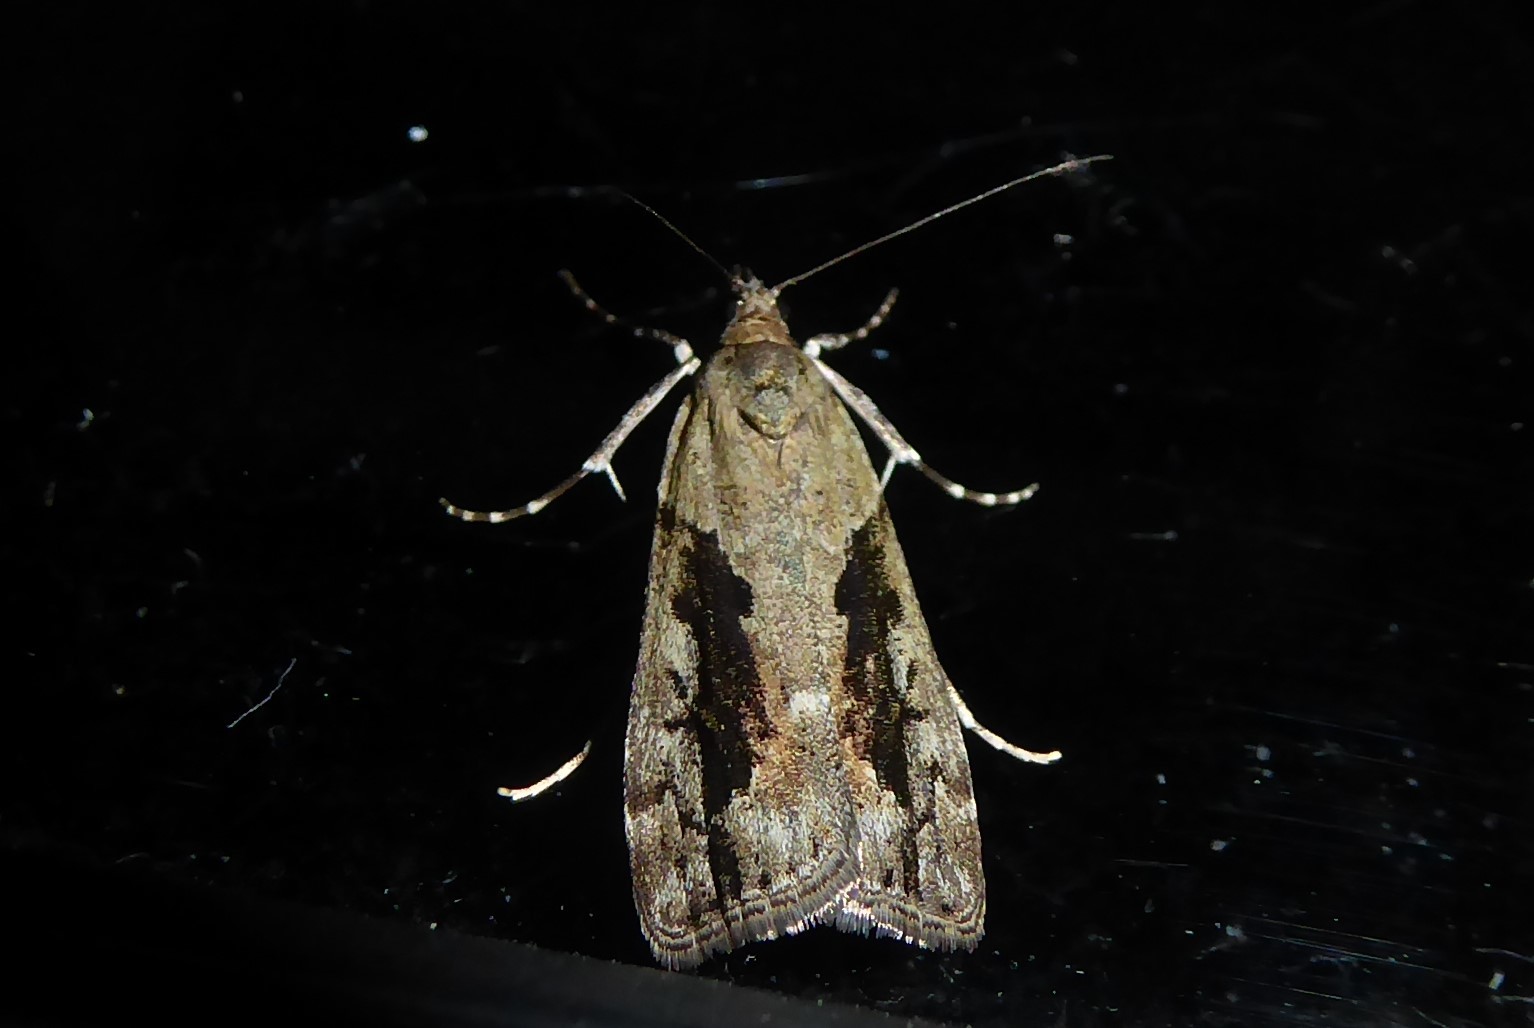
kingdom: Animalia
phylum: Arthropoda
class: Insecta
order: Lepidoptera
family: Crambidae
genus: Eudonia
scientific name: Eudonia submarginalis
